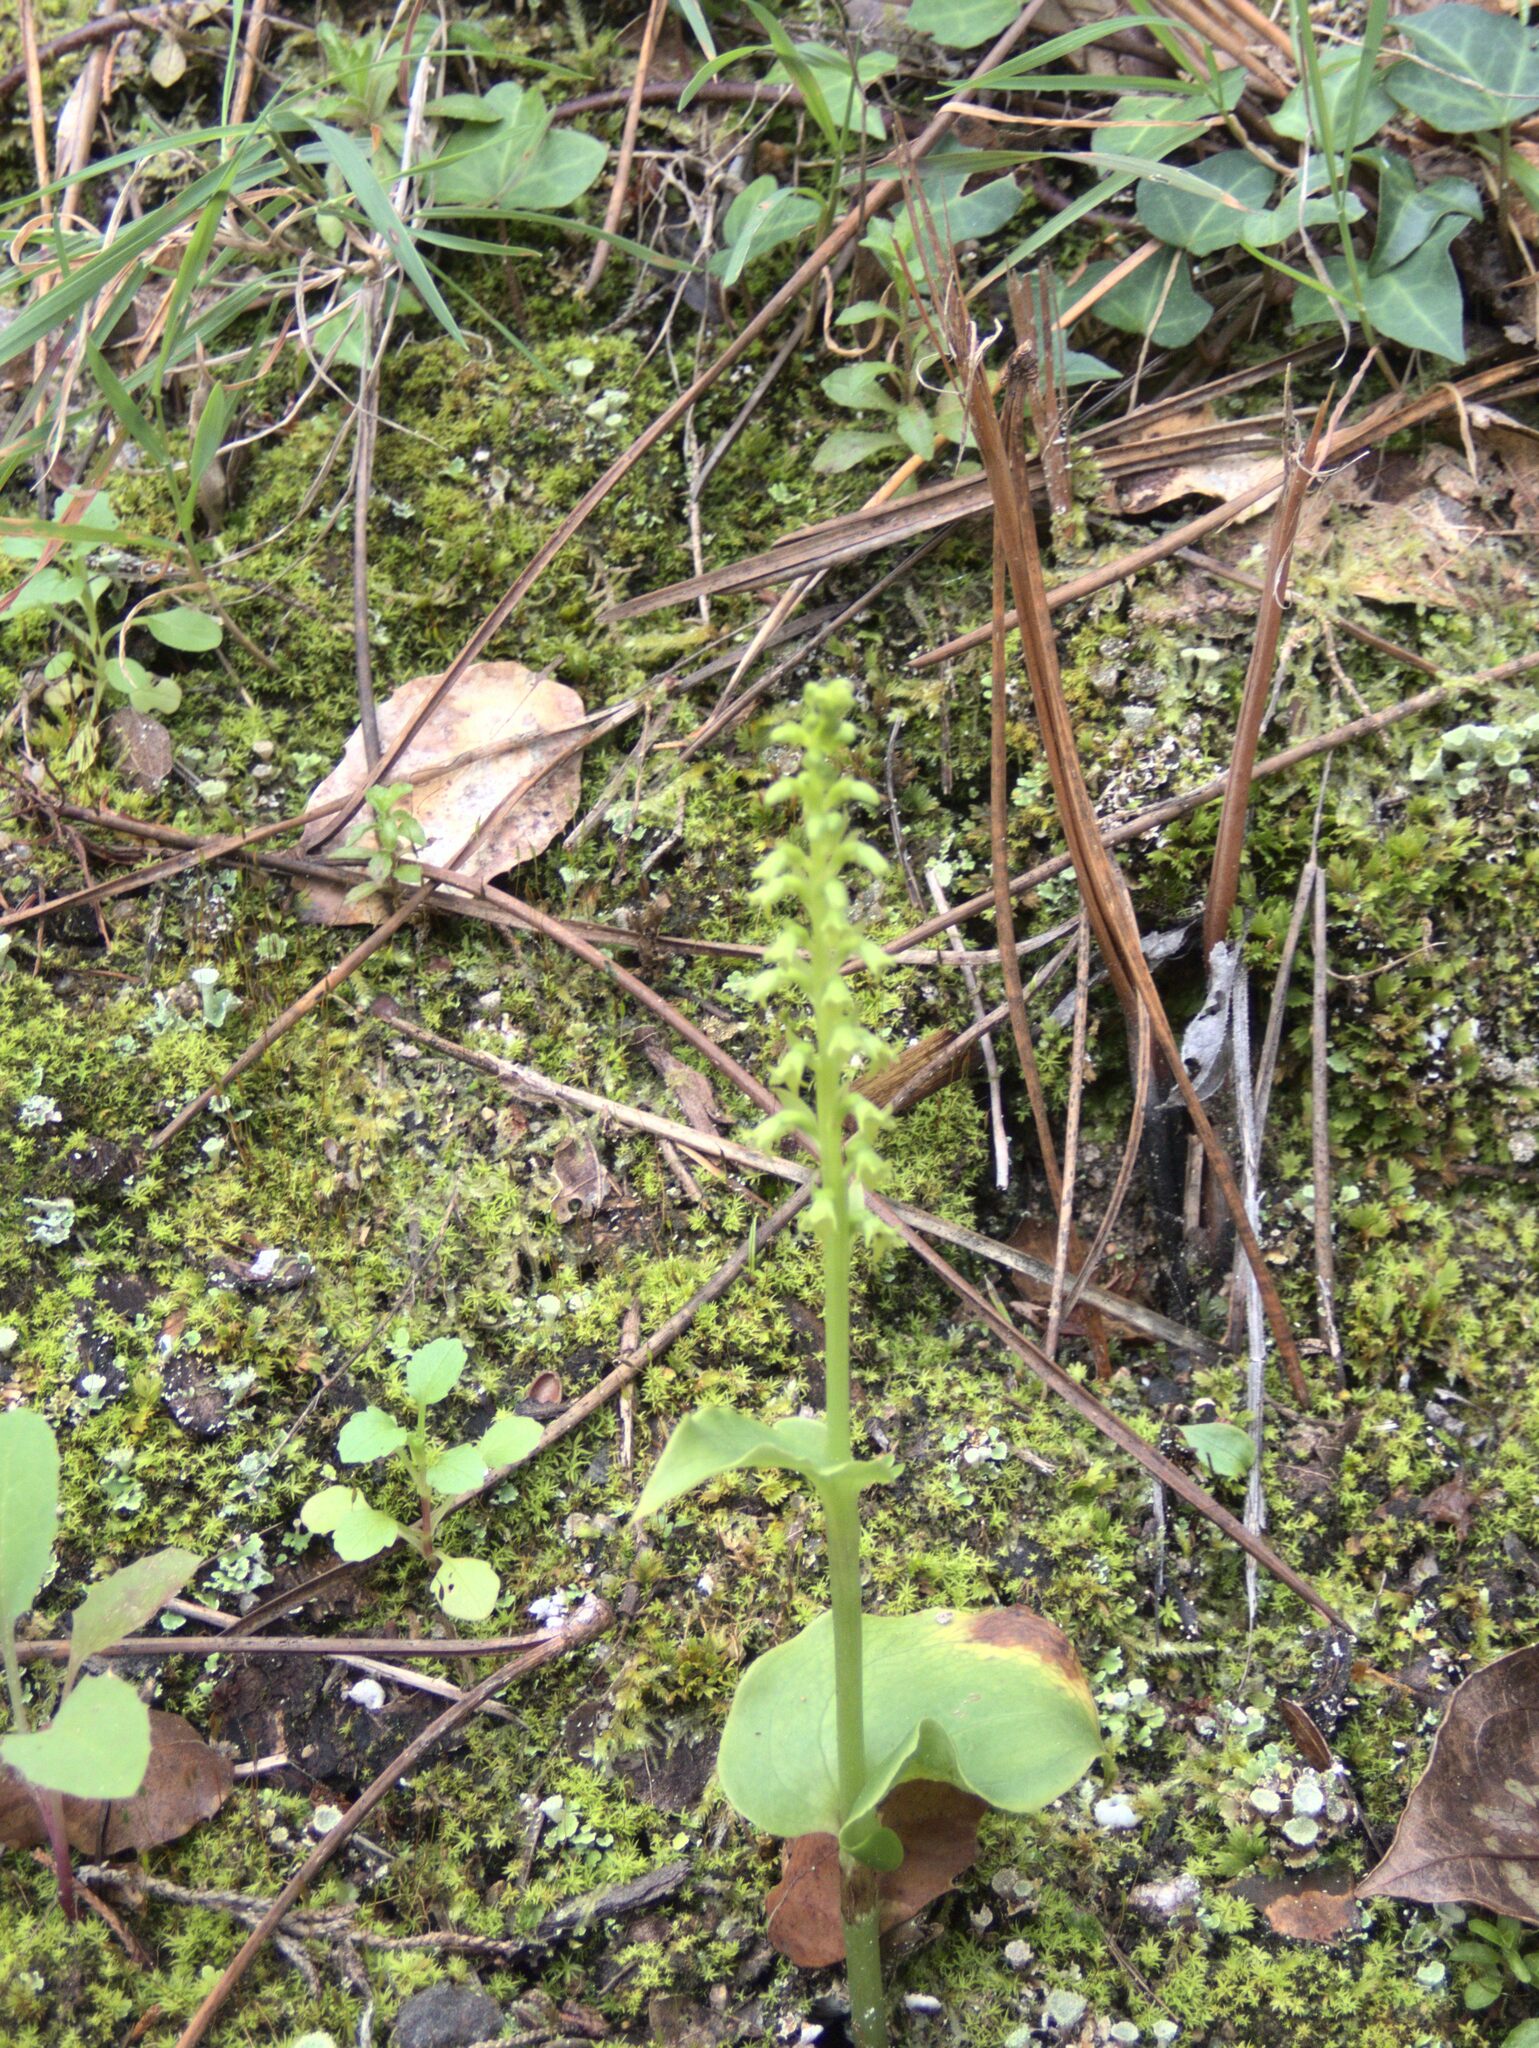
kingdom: Plantae
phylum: Tracheophyta
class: Liliopsida
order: Asparagales
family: Orchidaceae
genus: Gennaria
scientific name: Gennaria diphylla
